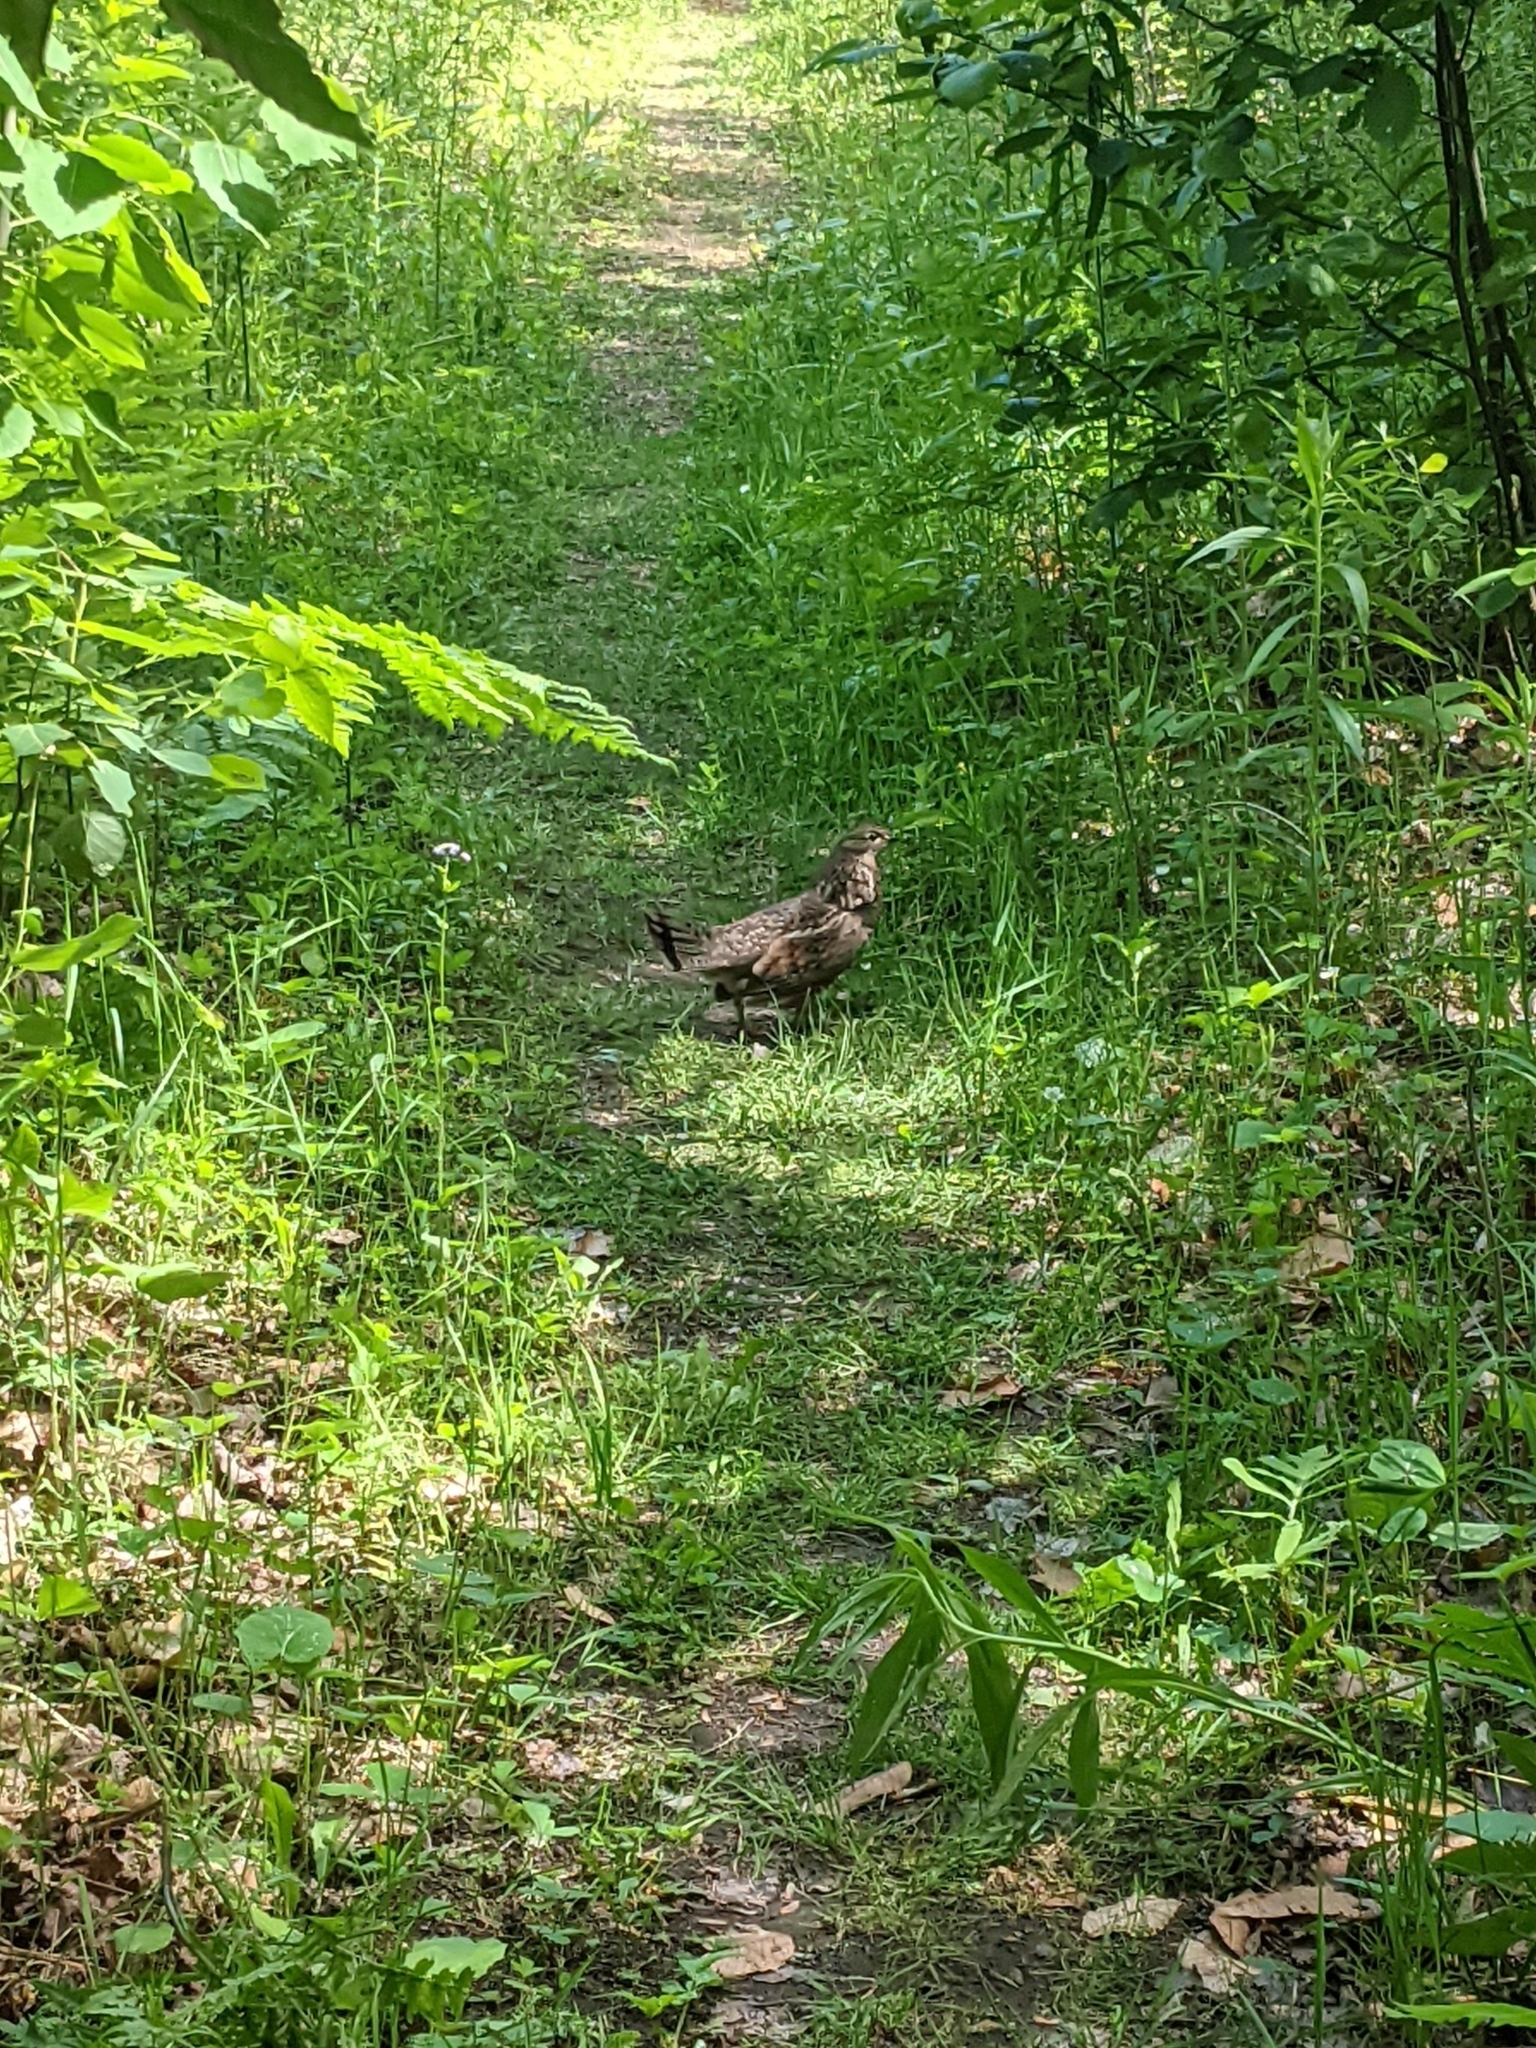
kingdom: Animalia
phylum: Chordata
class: Aves
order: Galliformes
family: Phasianidae
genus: Bonasa
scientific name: Bonasa umbellus
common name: Ruffed grouse
